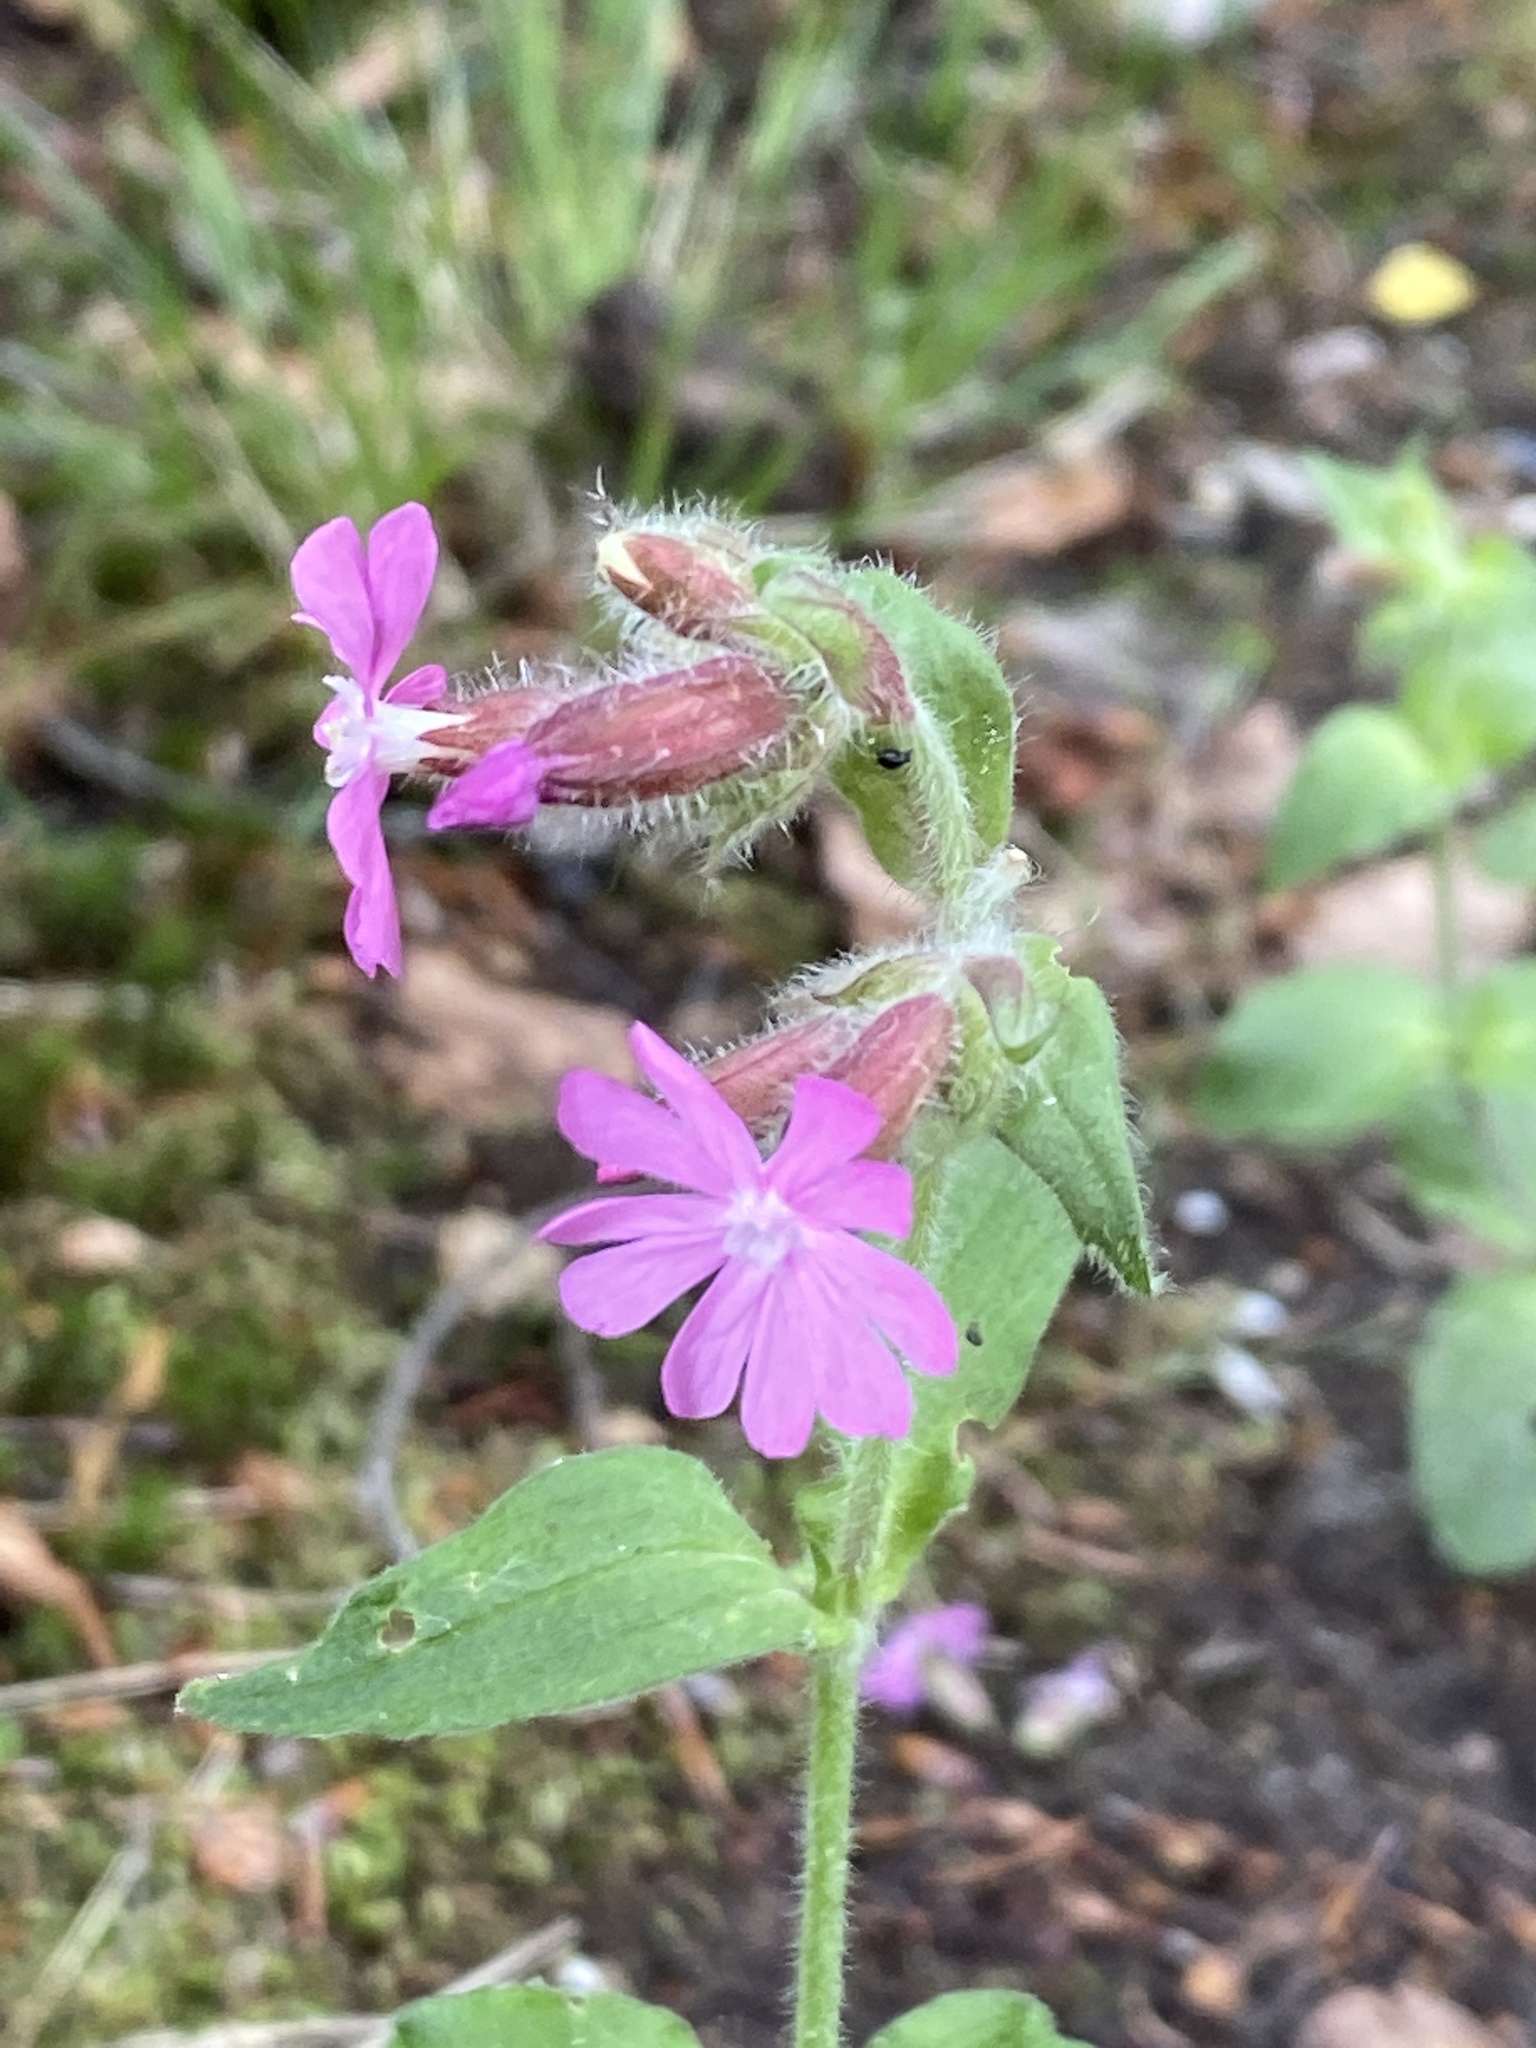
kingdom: Plantae
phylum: Tracheophyta
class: Magnoliopsida
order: Caryophyllales
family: Caryophyllaceae
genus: Silene
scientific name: Silene dioica
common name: Red campion
